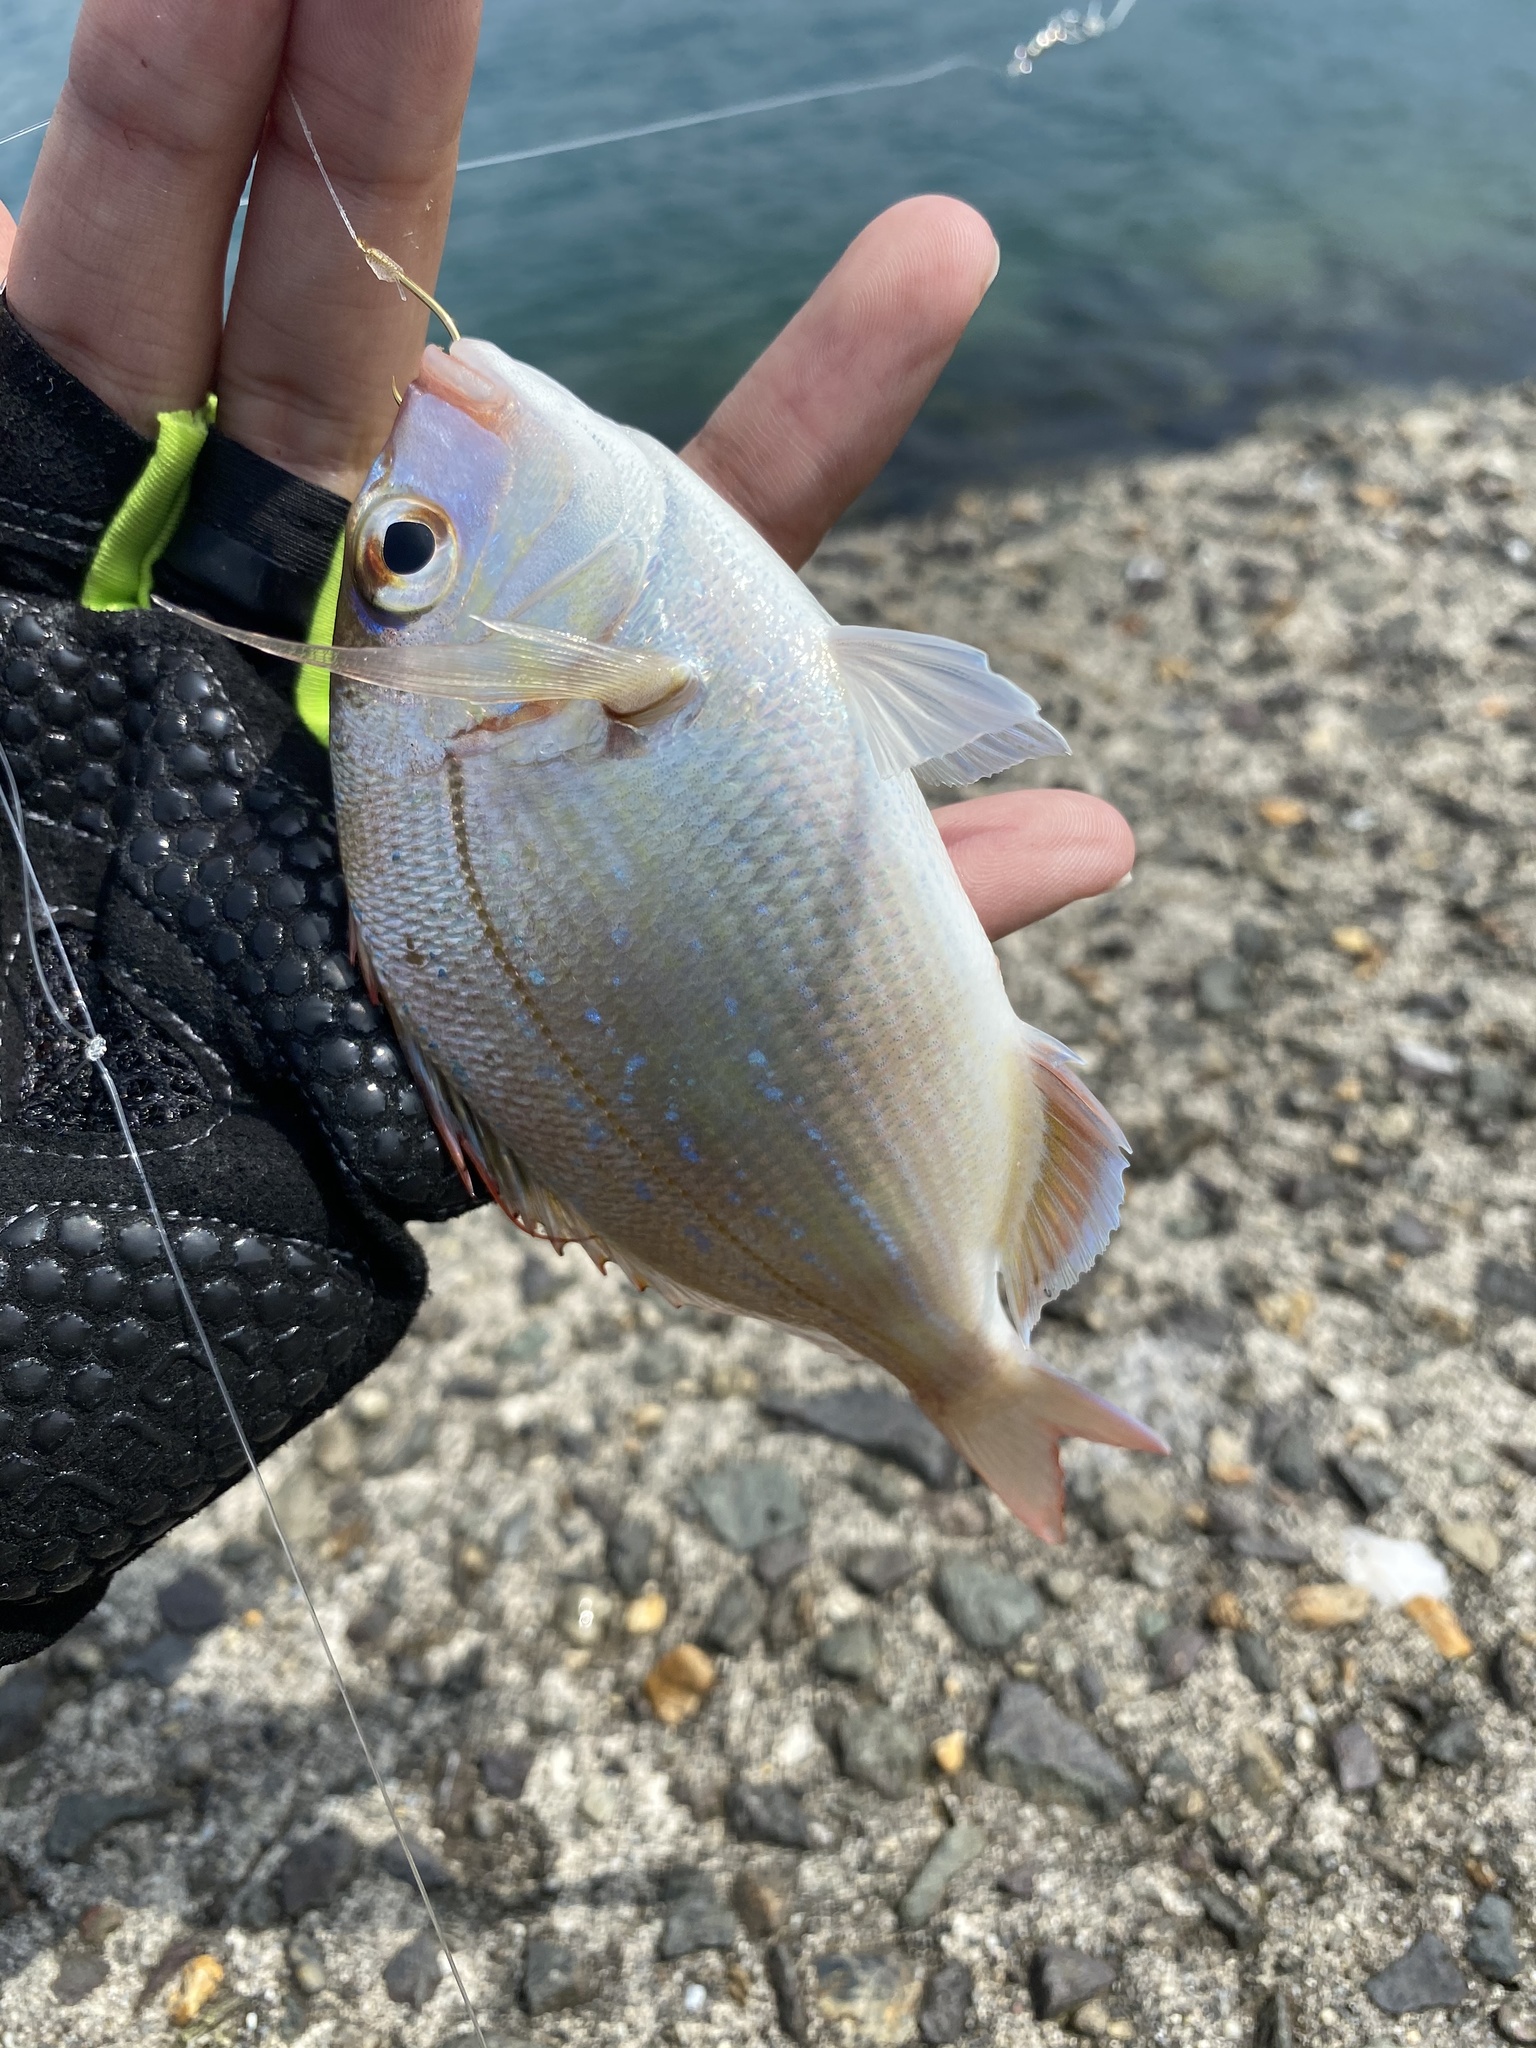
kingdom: Animalia
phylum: Chordata
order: Perciformes
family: Sparidae
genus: Pagrus
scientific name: Pagrus major
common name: Red sea bream
